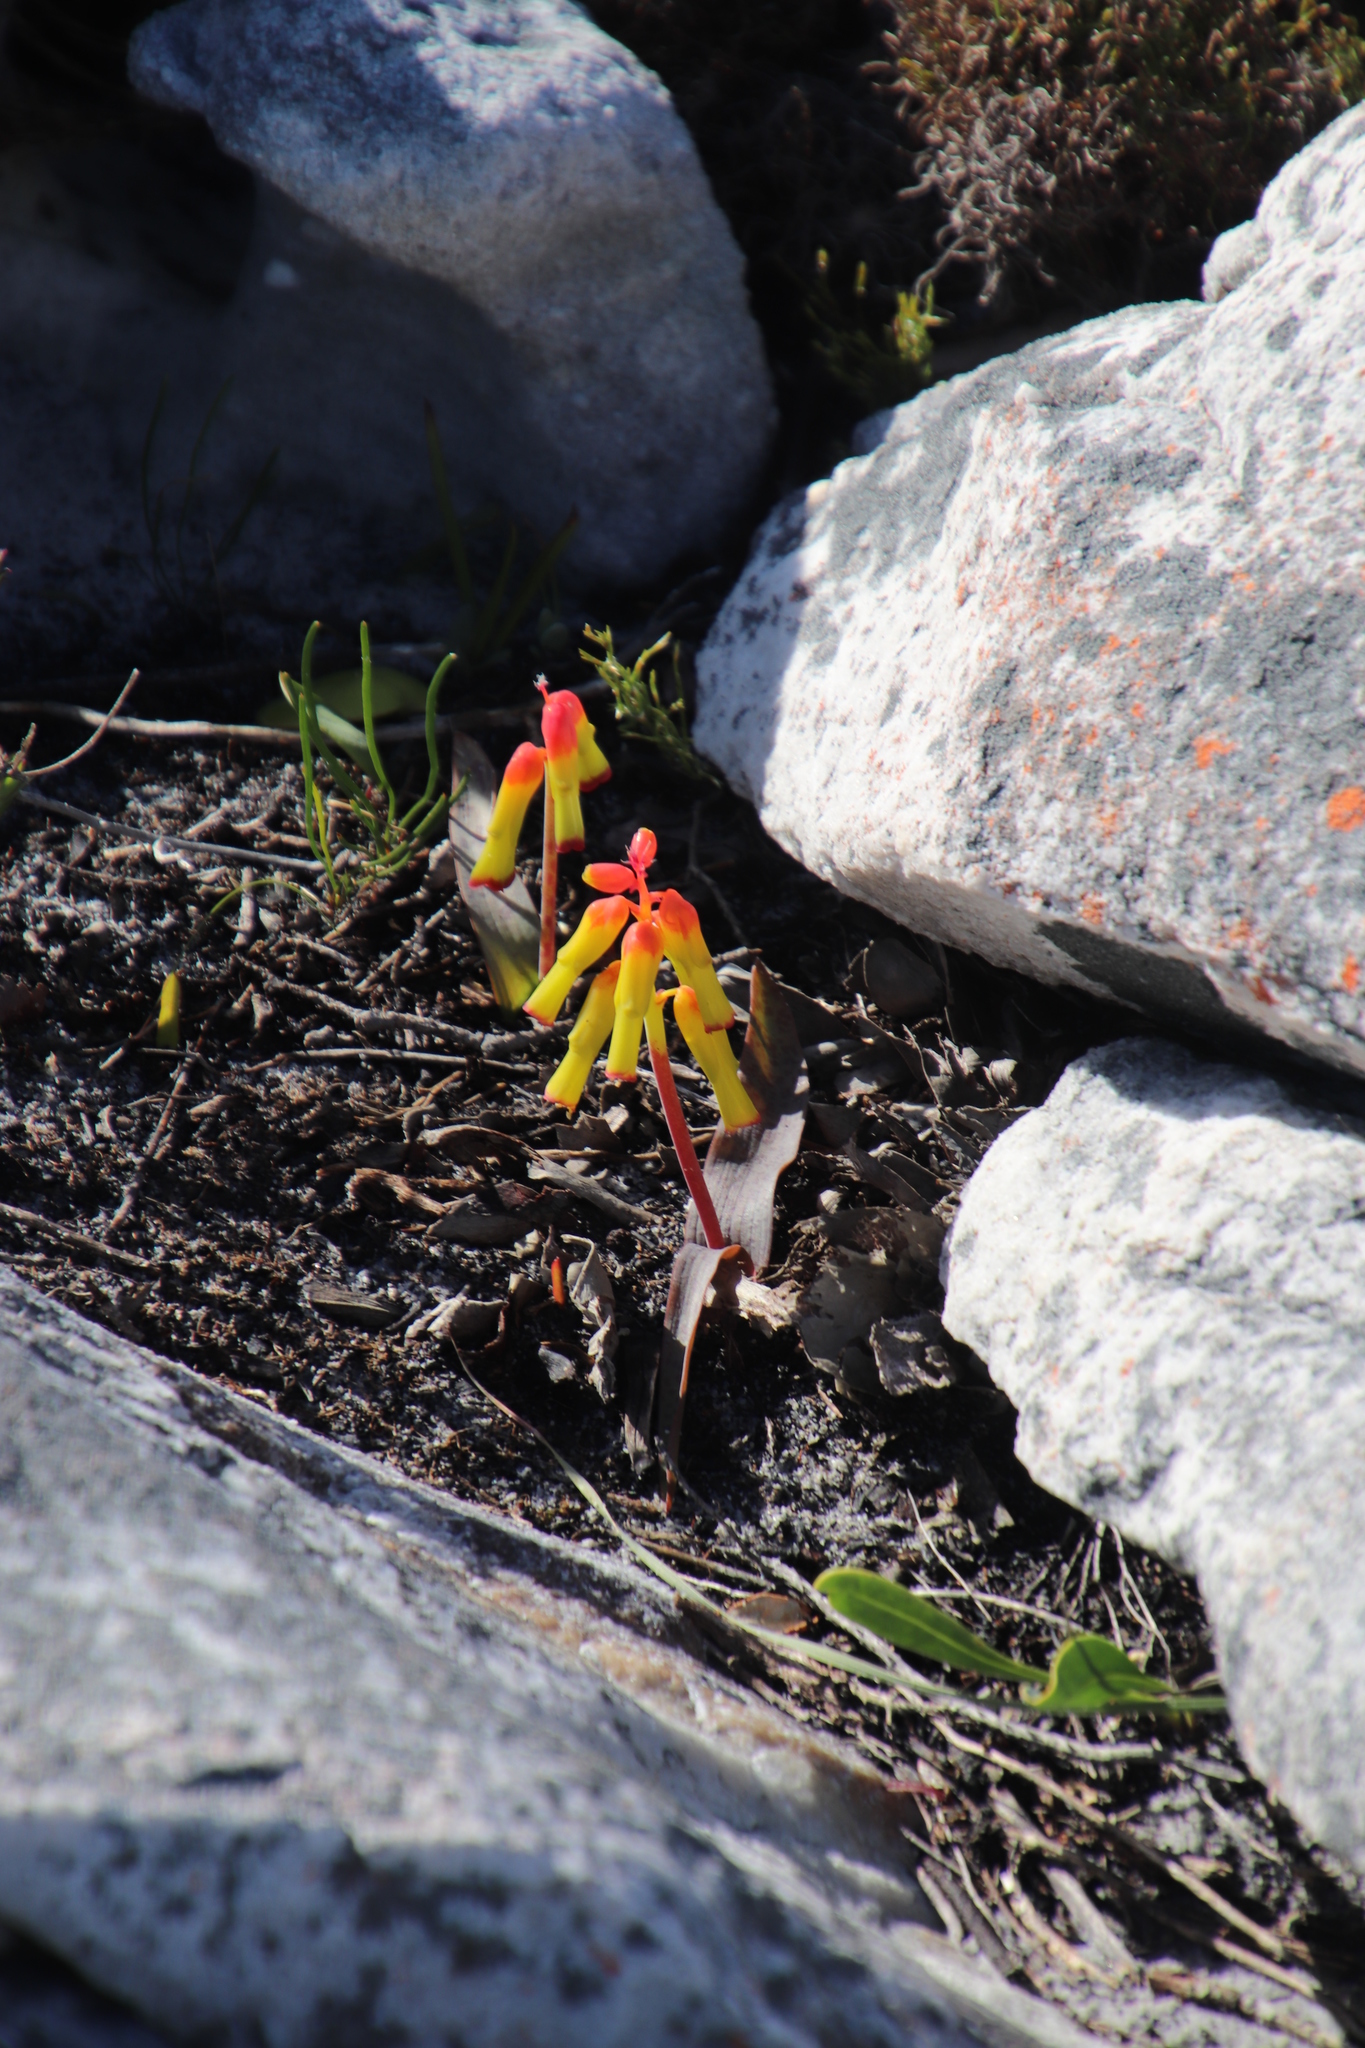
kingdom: Plantae
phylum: Tracheophyta
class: Liliopsida
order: Asparagales
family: Asparagaceae
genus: Lachenalia
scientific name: Lachenalia luteola
